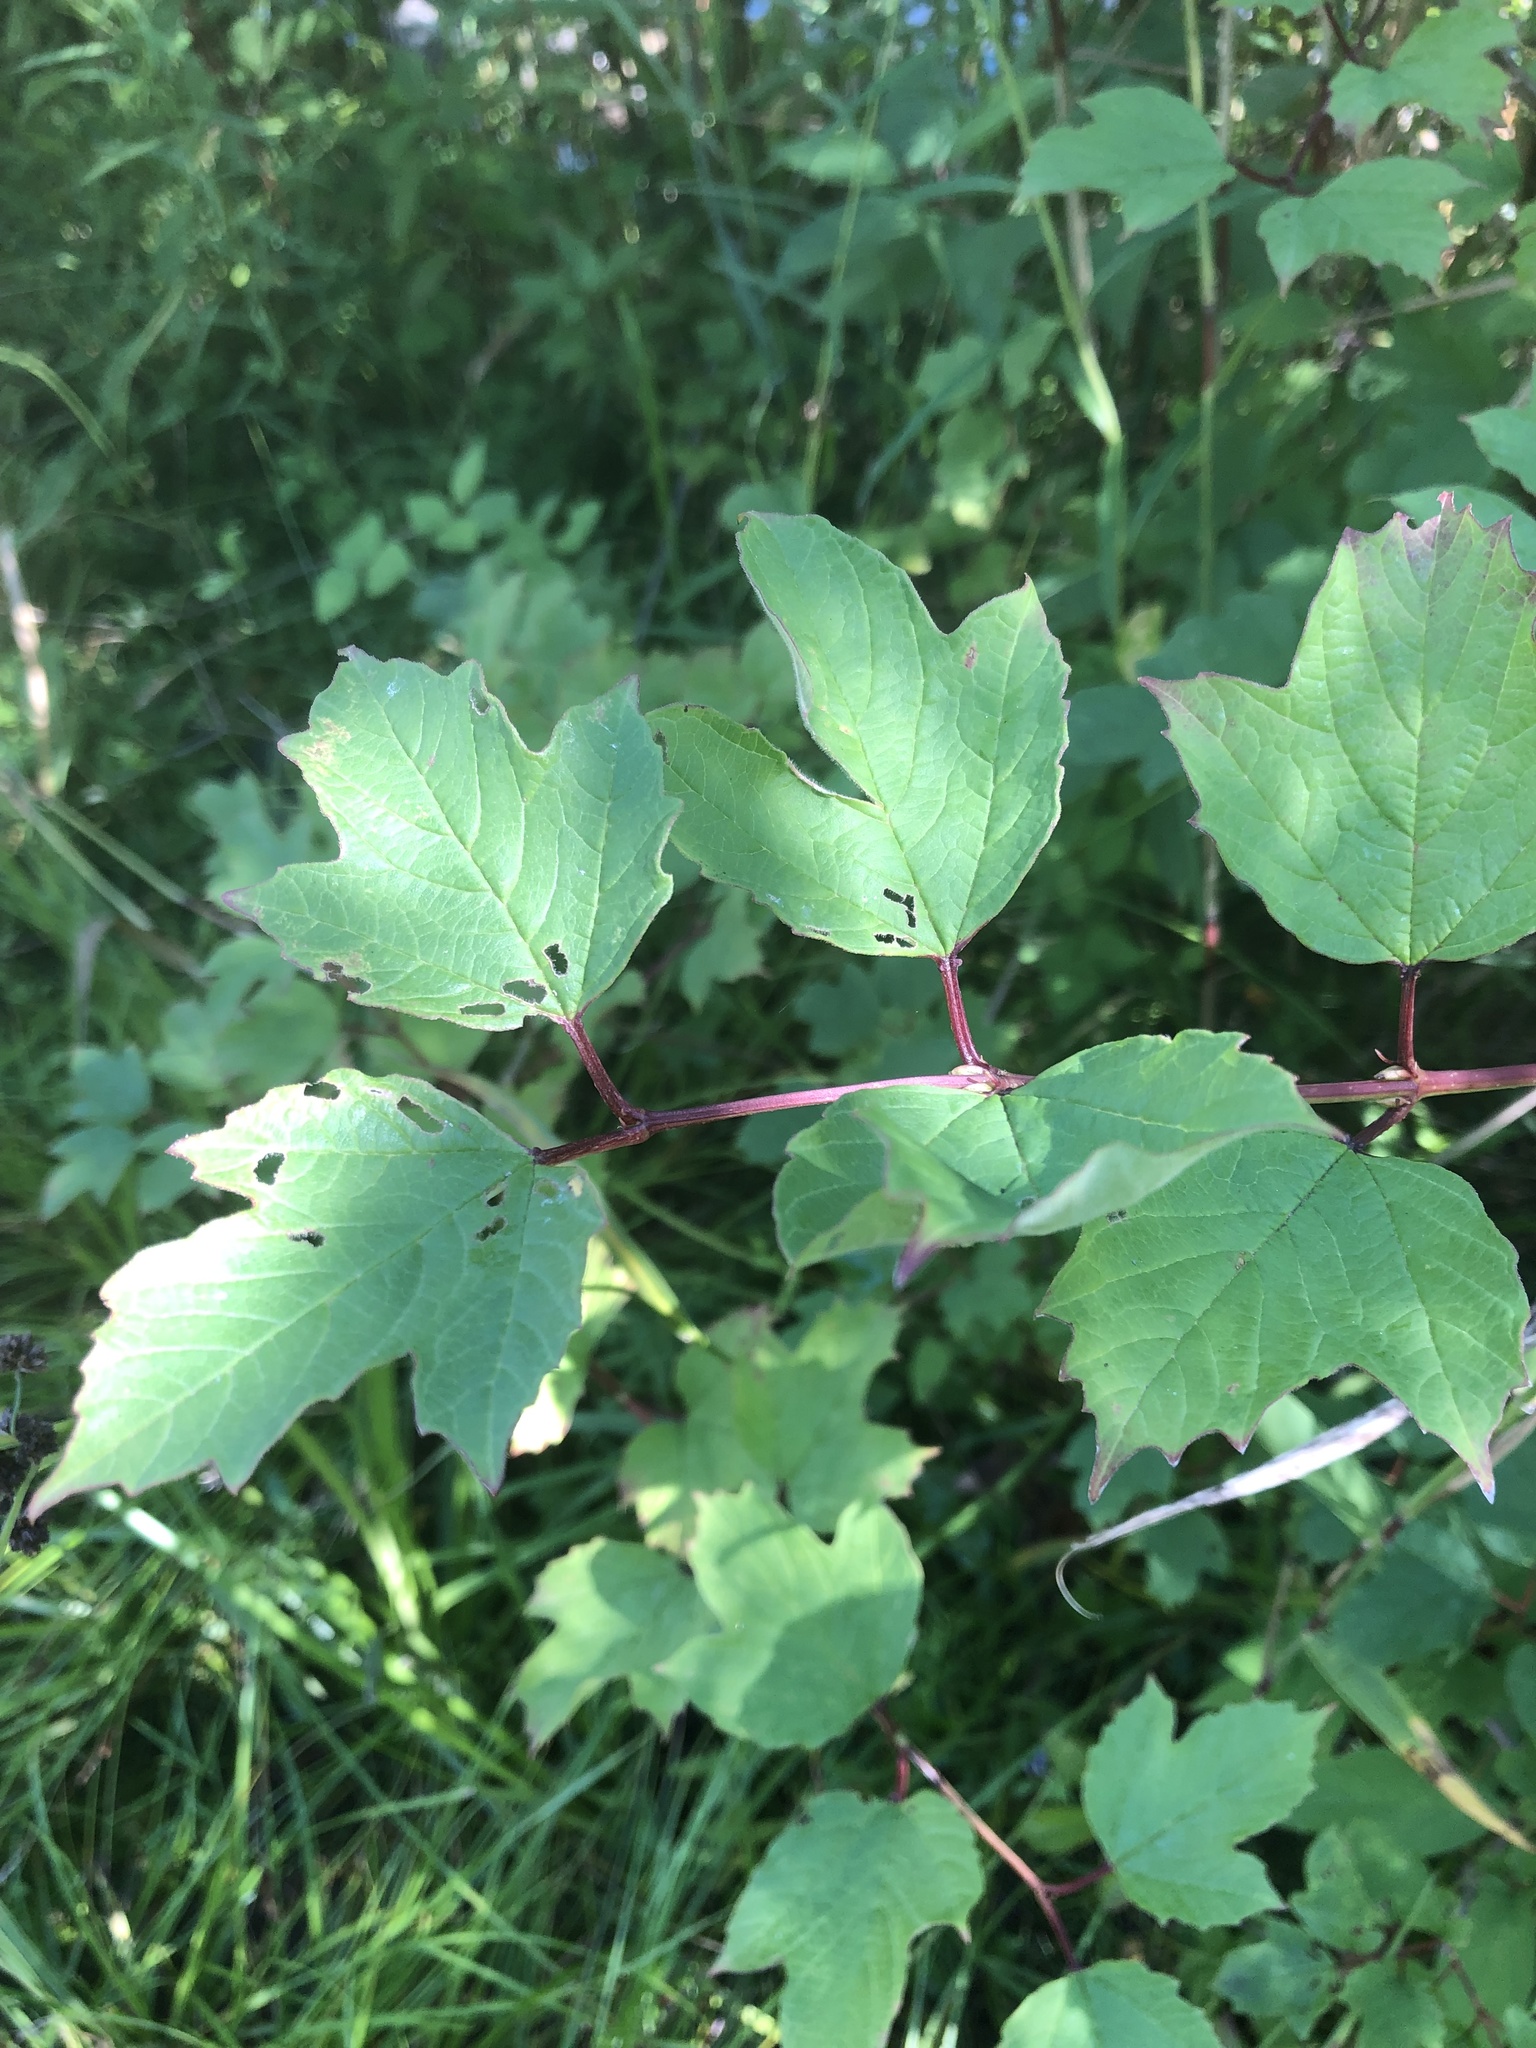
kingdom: Plantae
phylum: Tracheophyta
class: Magnoliopsida
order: Dipsacales
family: Viburnaceae
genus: Viburnum
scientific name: Viburnum trilobum
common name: American cranberrybush
